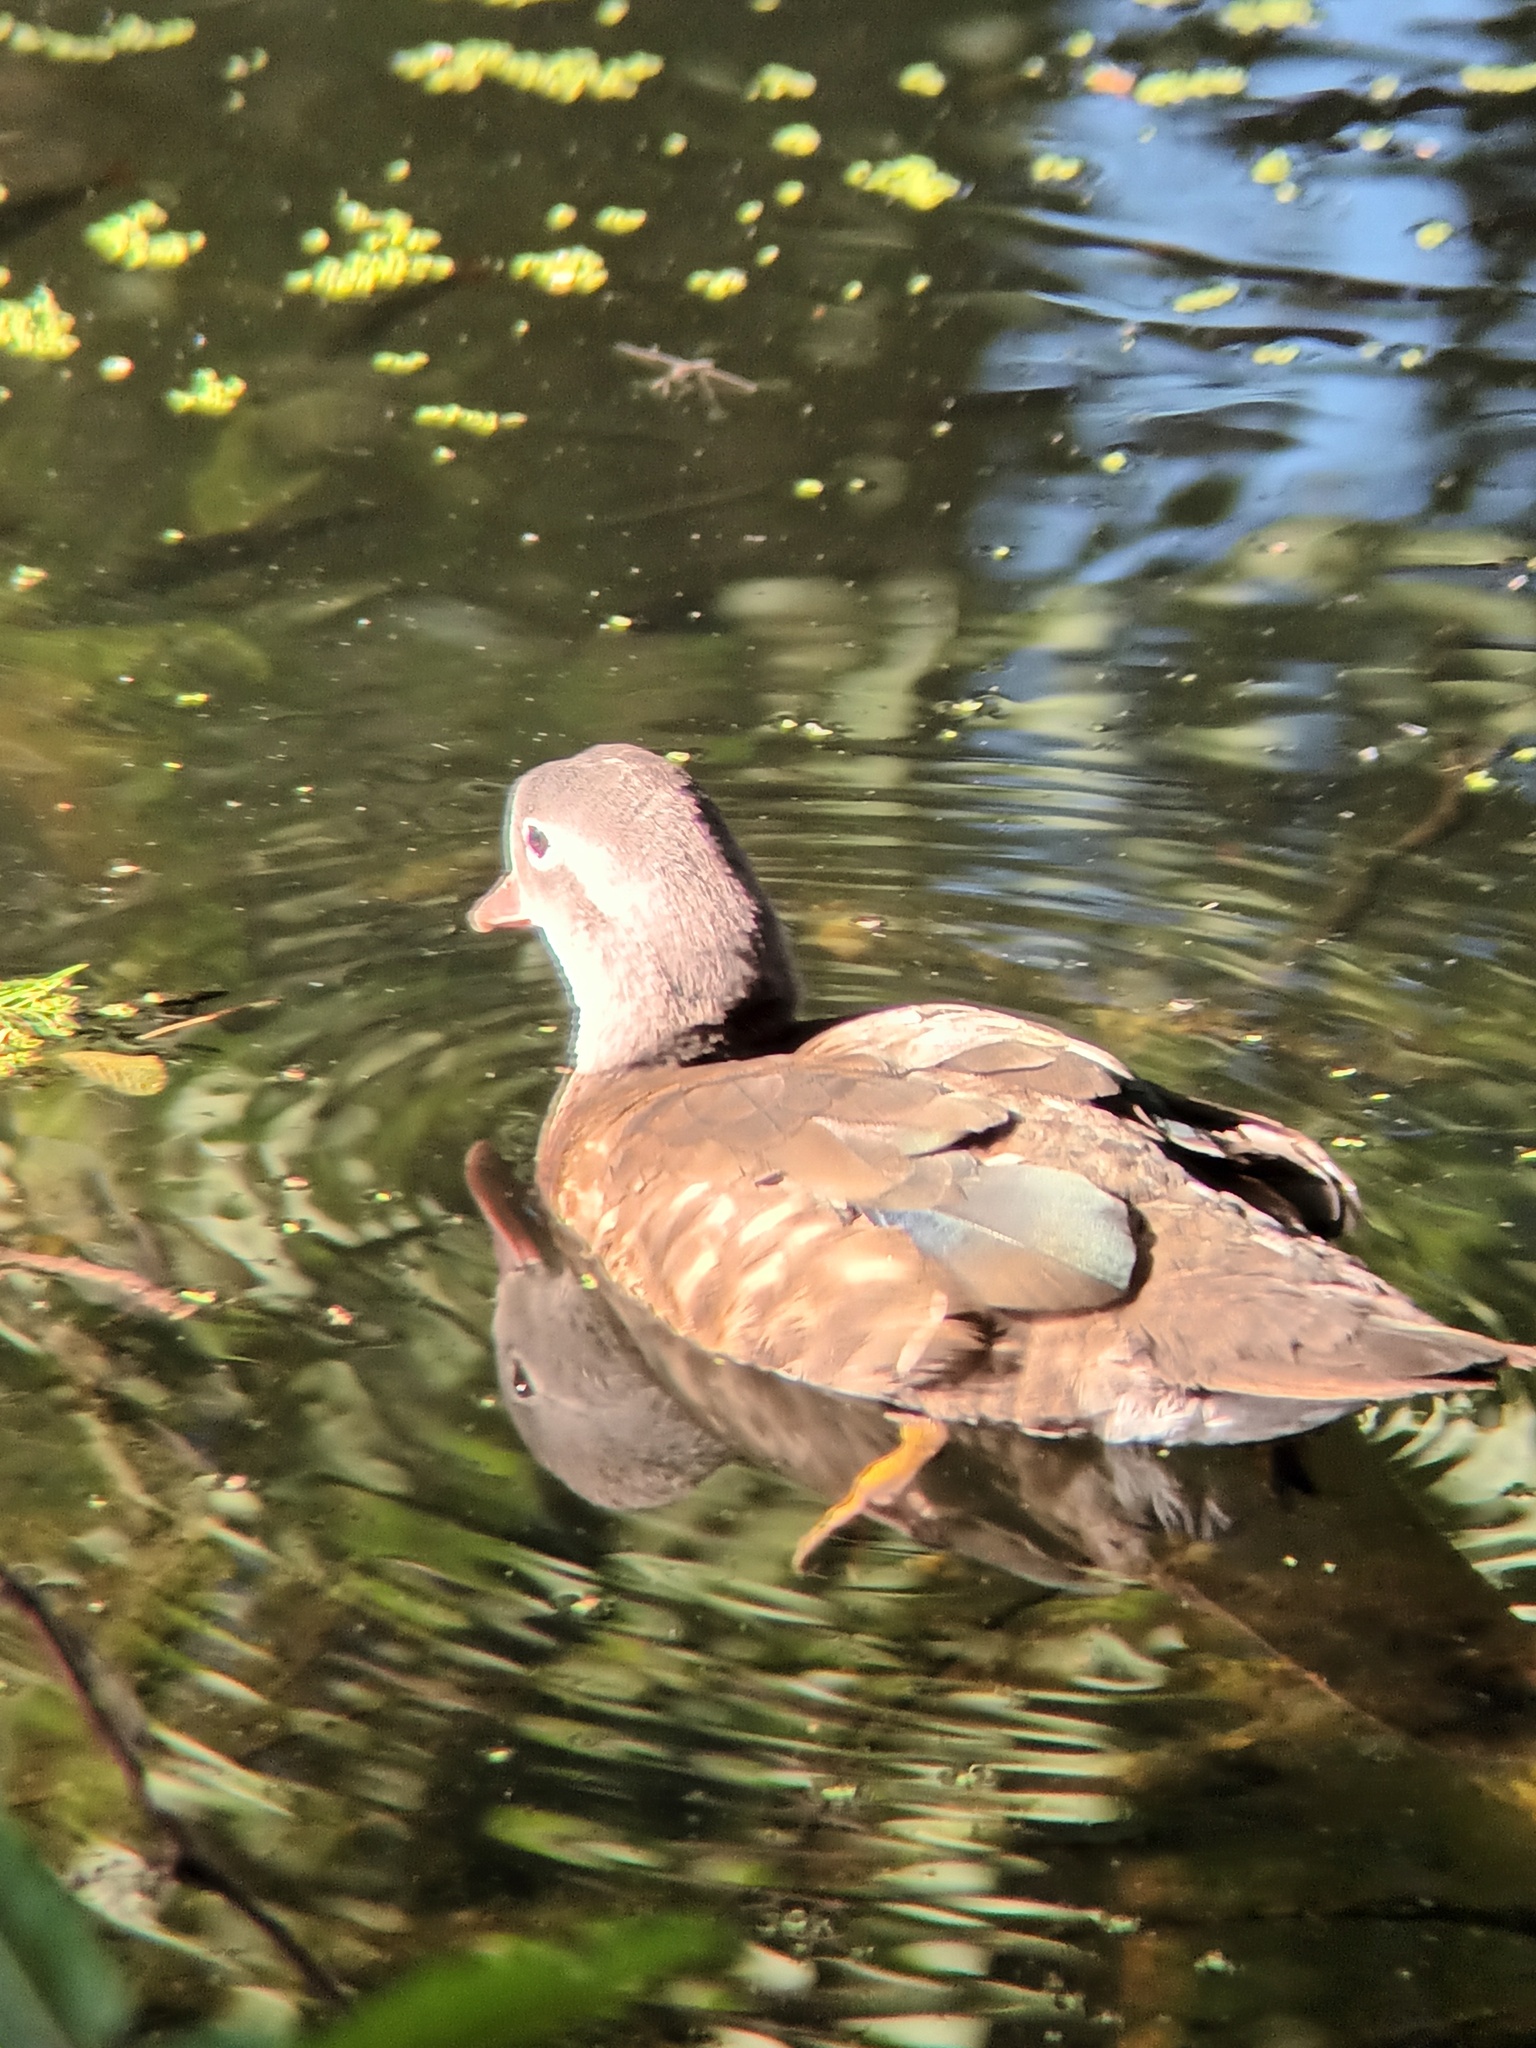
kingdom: Animalia
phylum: Chordata
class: Aves
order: Anseriformes
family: Anatidae
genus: Aix
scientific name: Aix galericulata
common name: Mandarin duck
